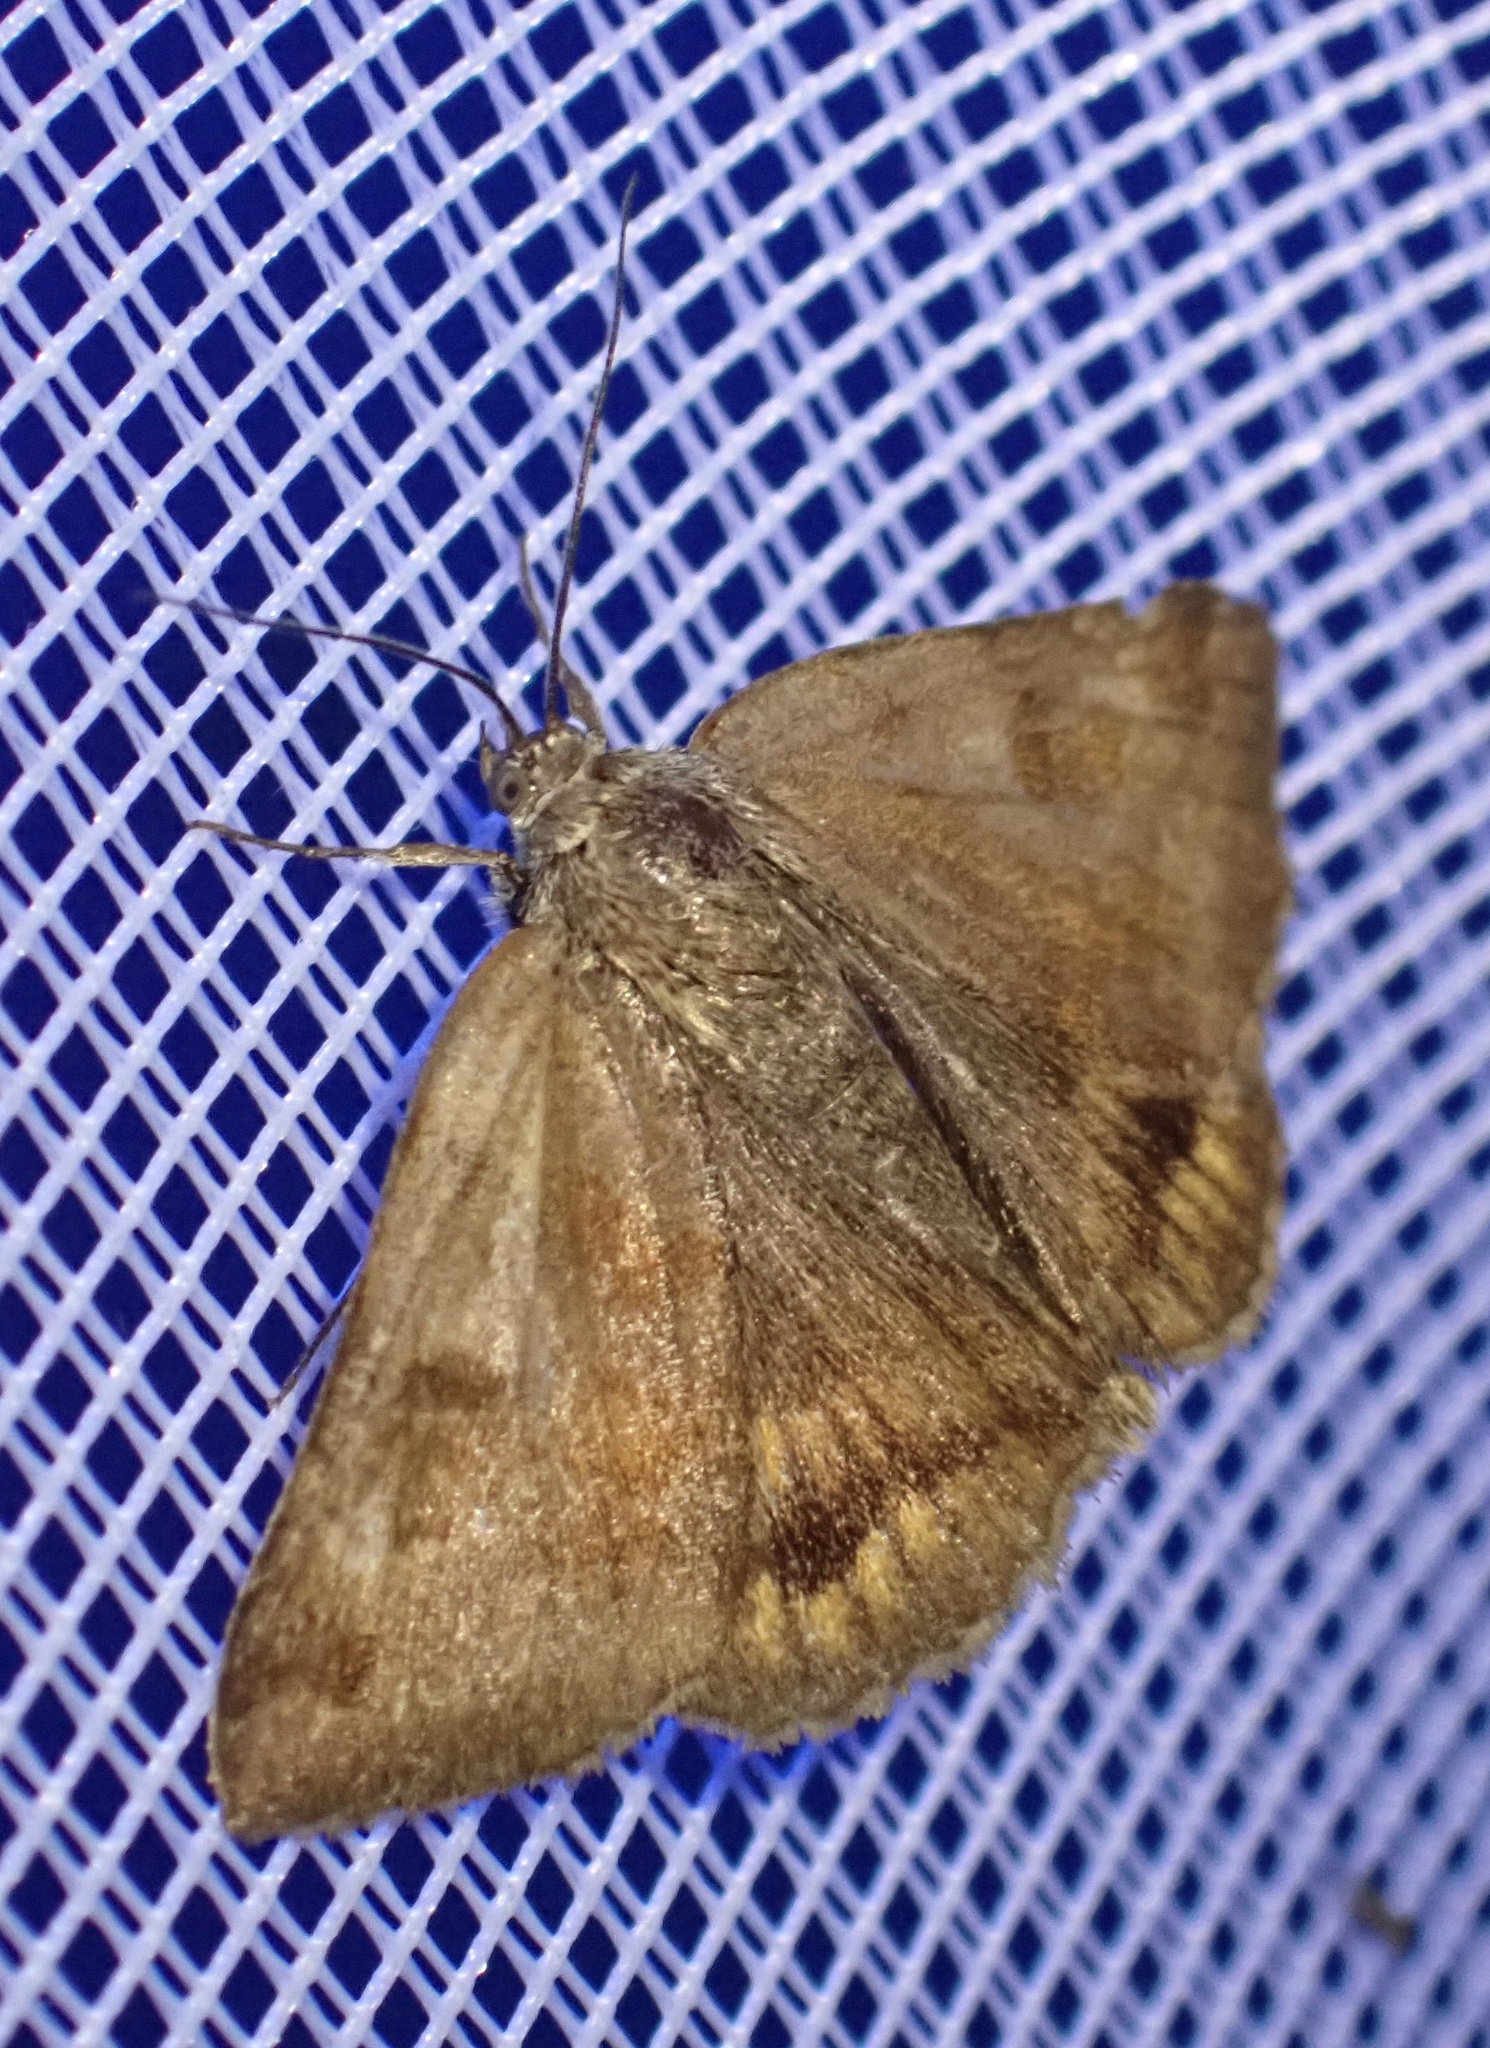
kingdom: Animalia
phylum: Arthropoda
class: Insecta
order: Lepidoptera
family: Erebidae
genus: Euclidia
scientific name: Euclidia glyphica
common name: Burnet companion
